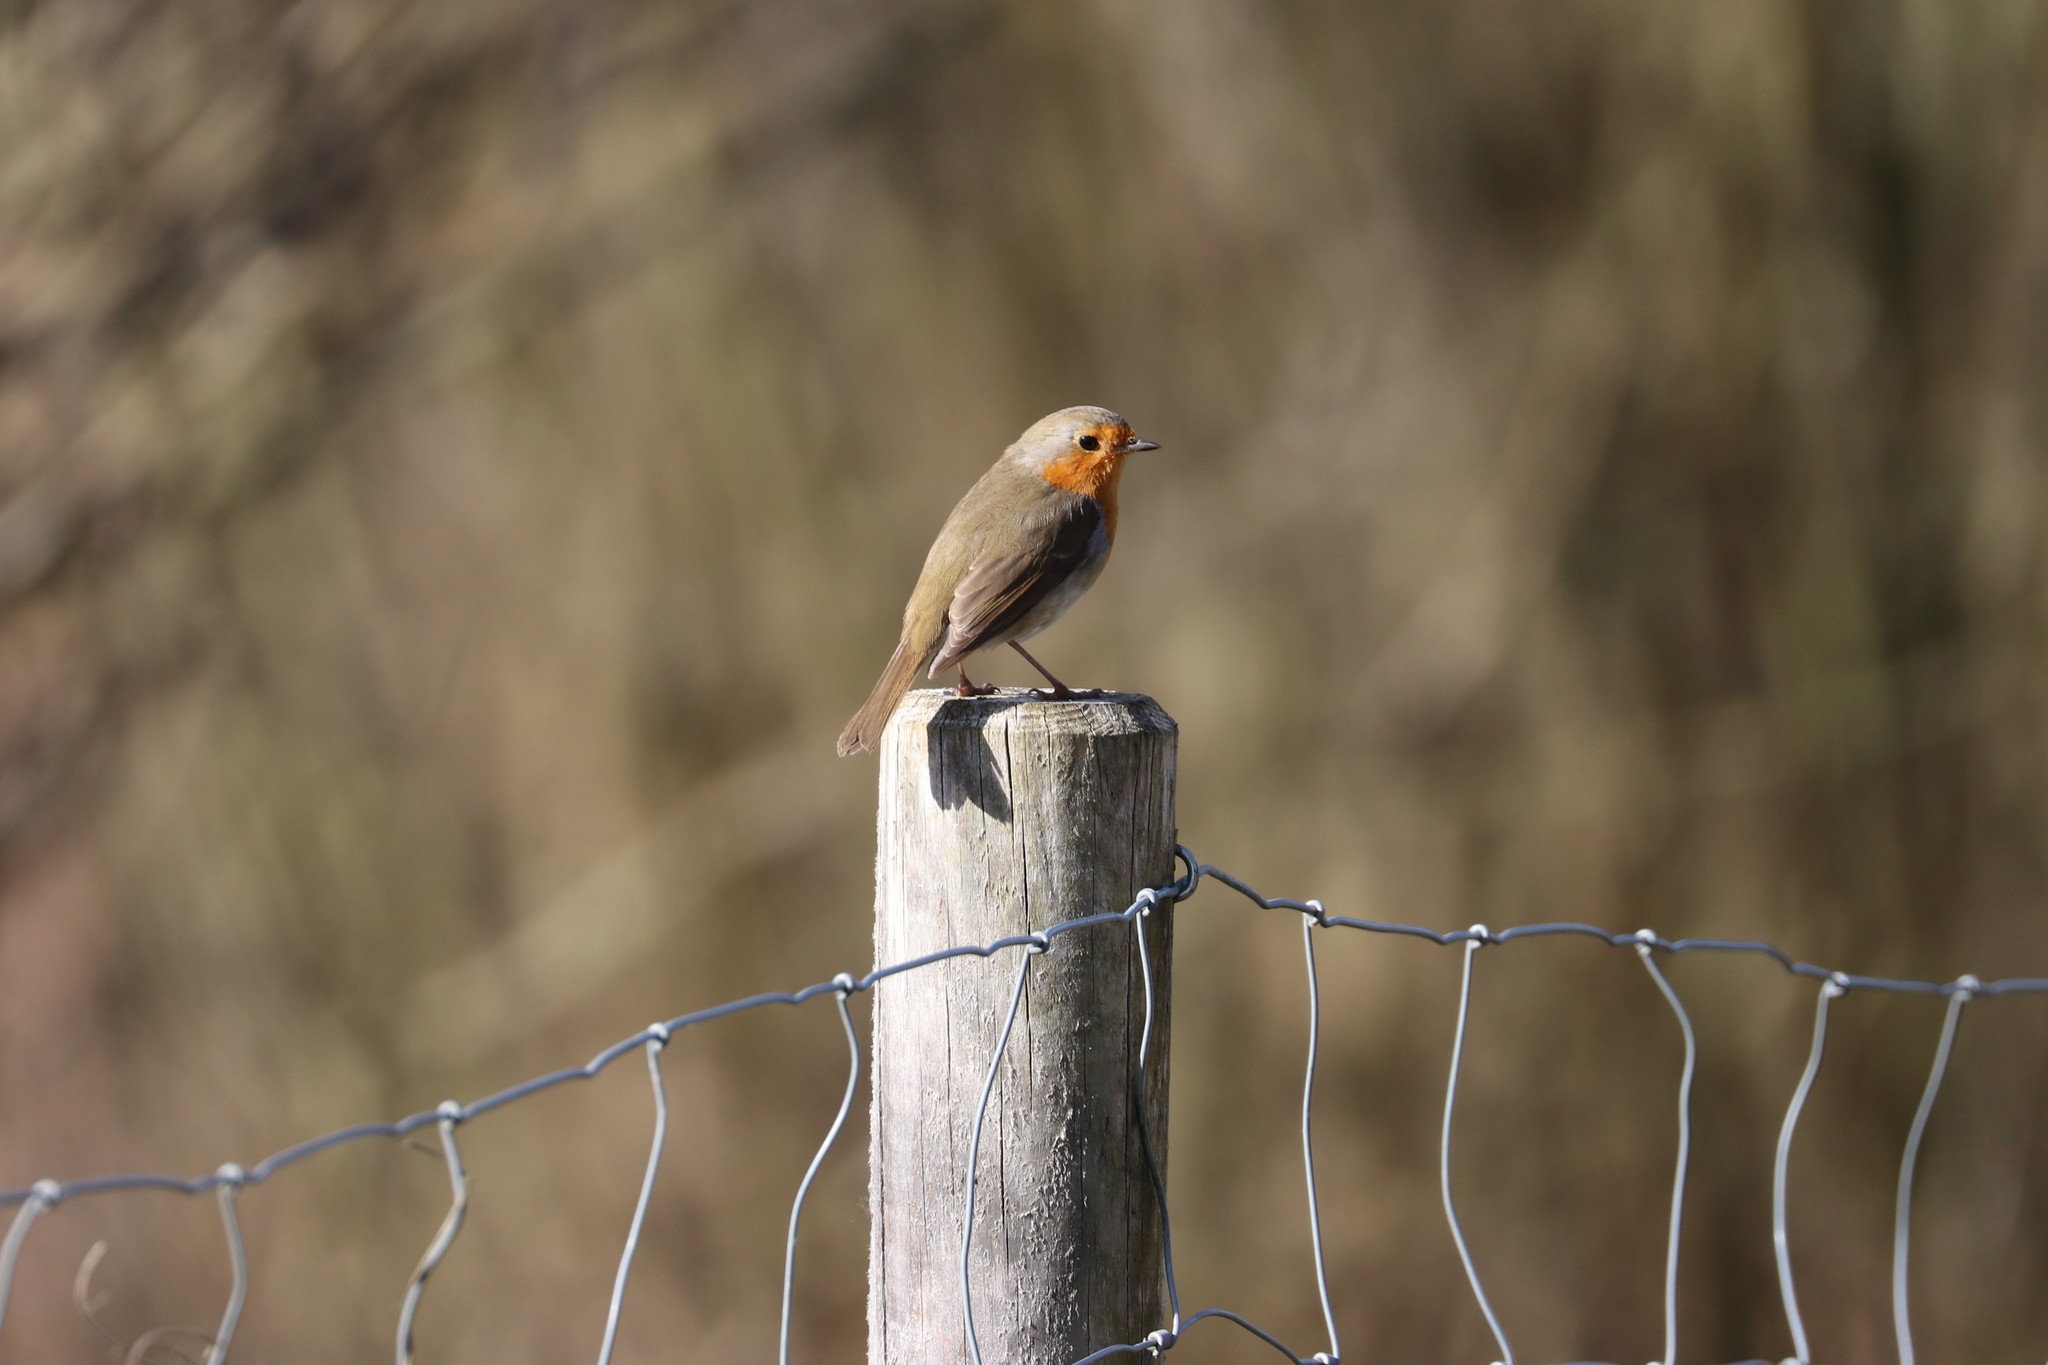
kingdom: Animalia
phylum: Chordata
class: Aves
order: Passeriformes
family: Muscicapidae
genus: Erithacus
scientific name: Erithacus rubecula
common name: European robin
